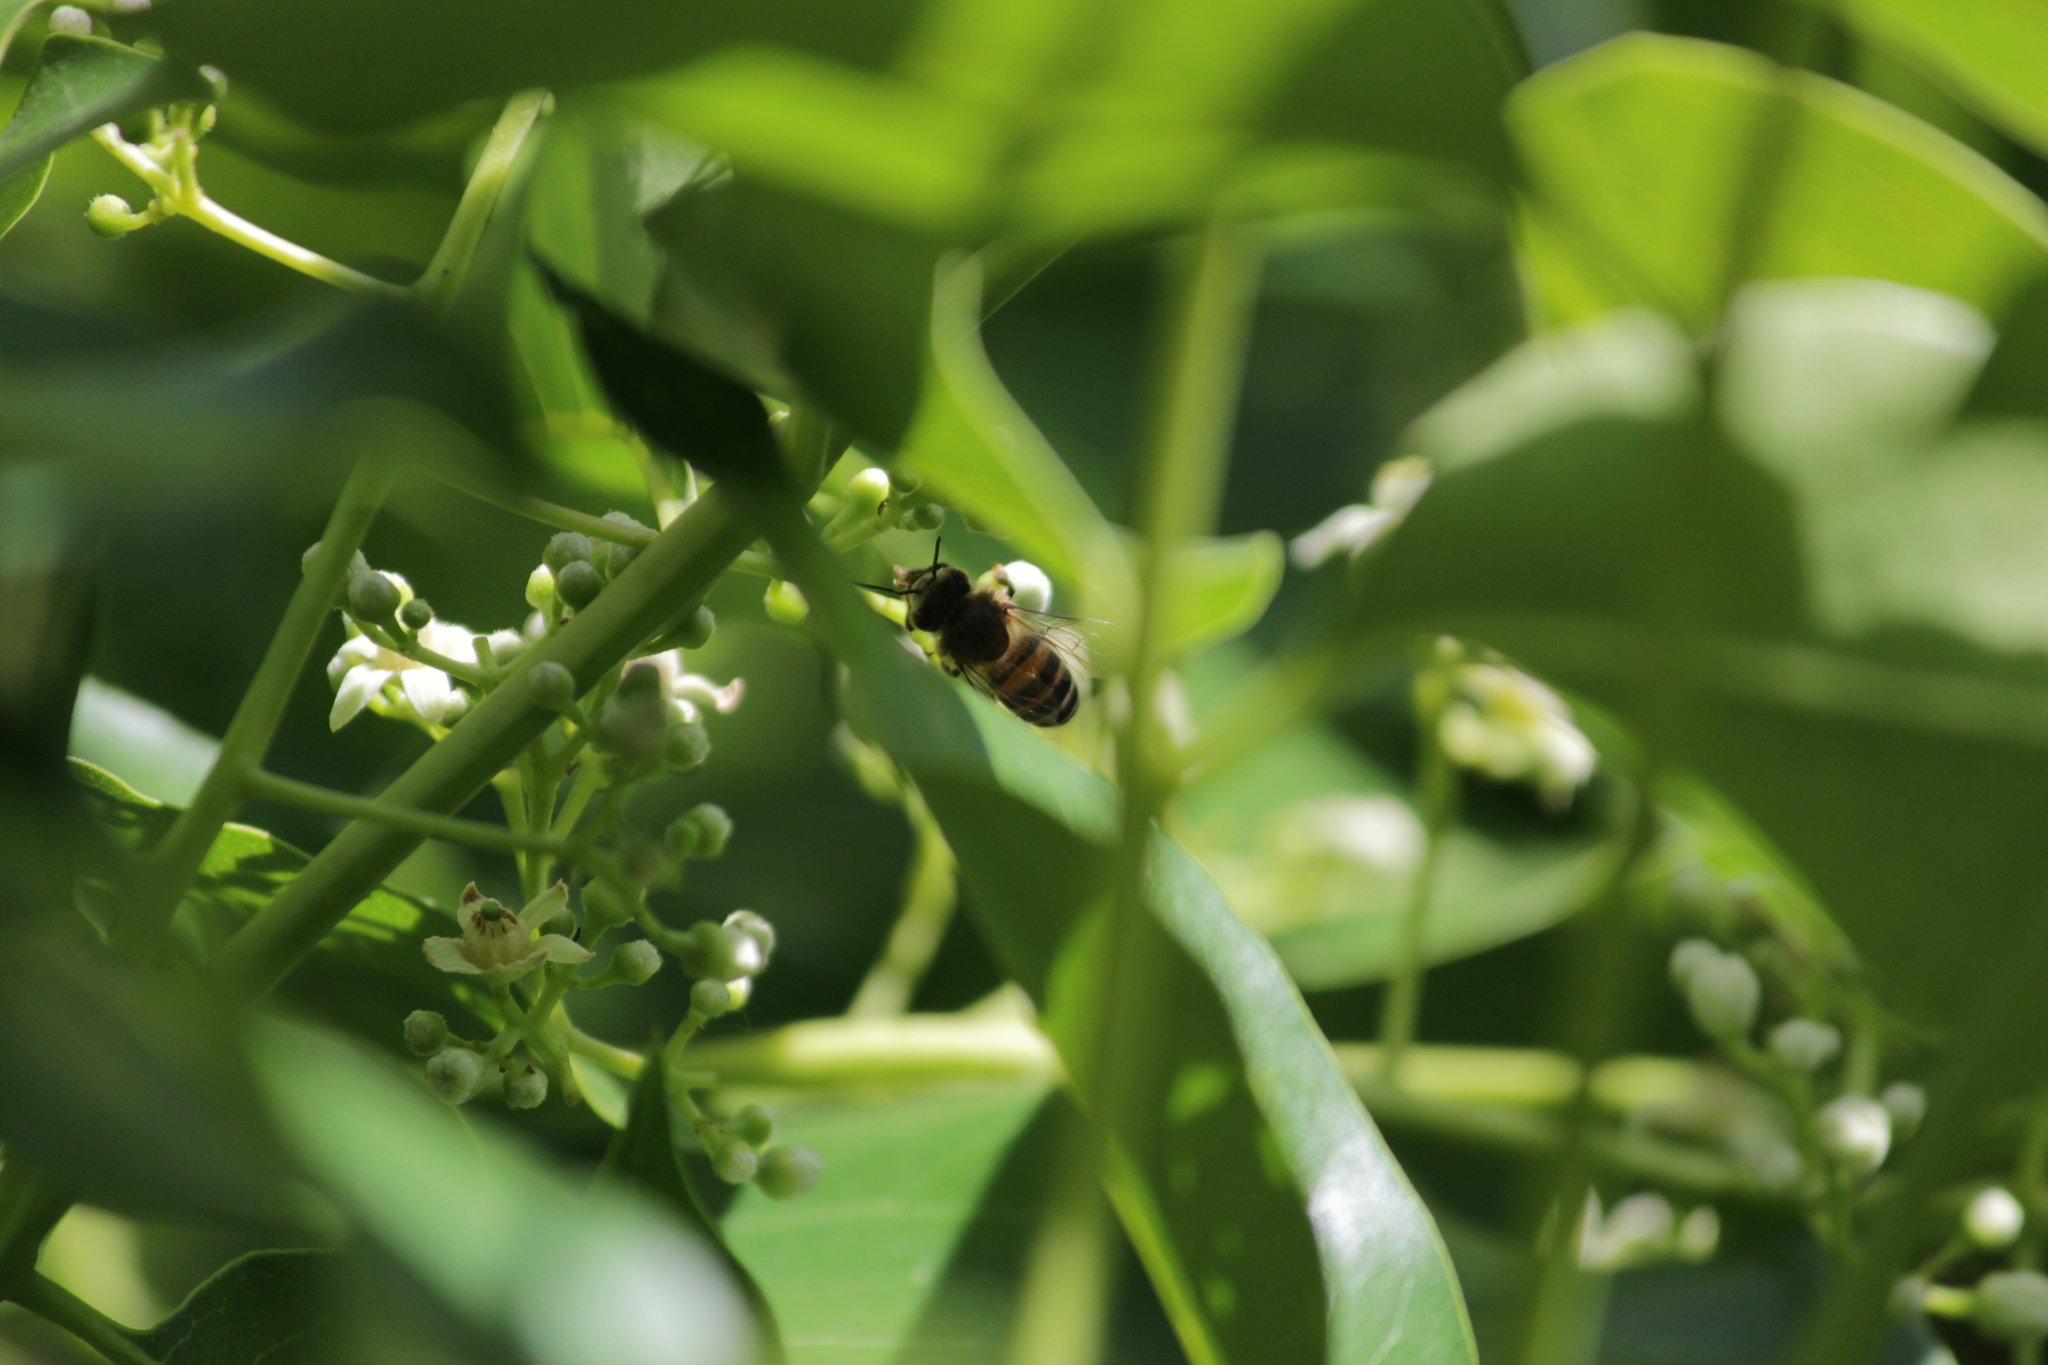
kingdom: Animalia
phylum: Arthropoda
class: Insecta
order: Hymenoptera
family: Apidae
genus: Apis
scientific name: Apis mellifera
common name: Honey bee
